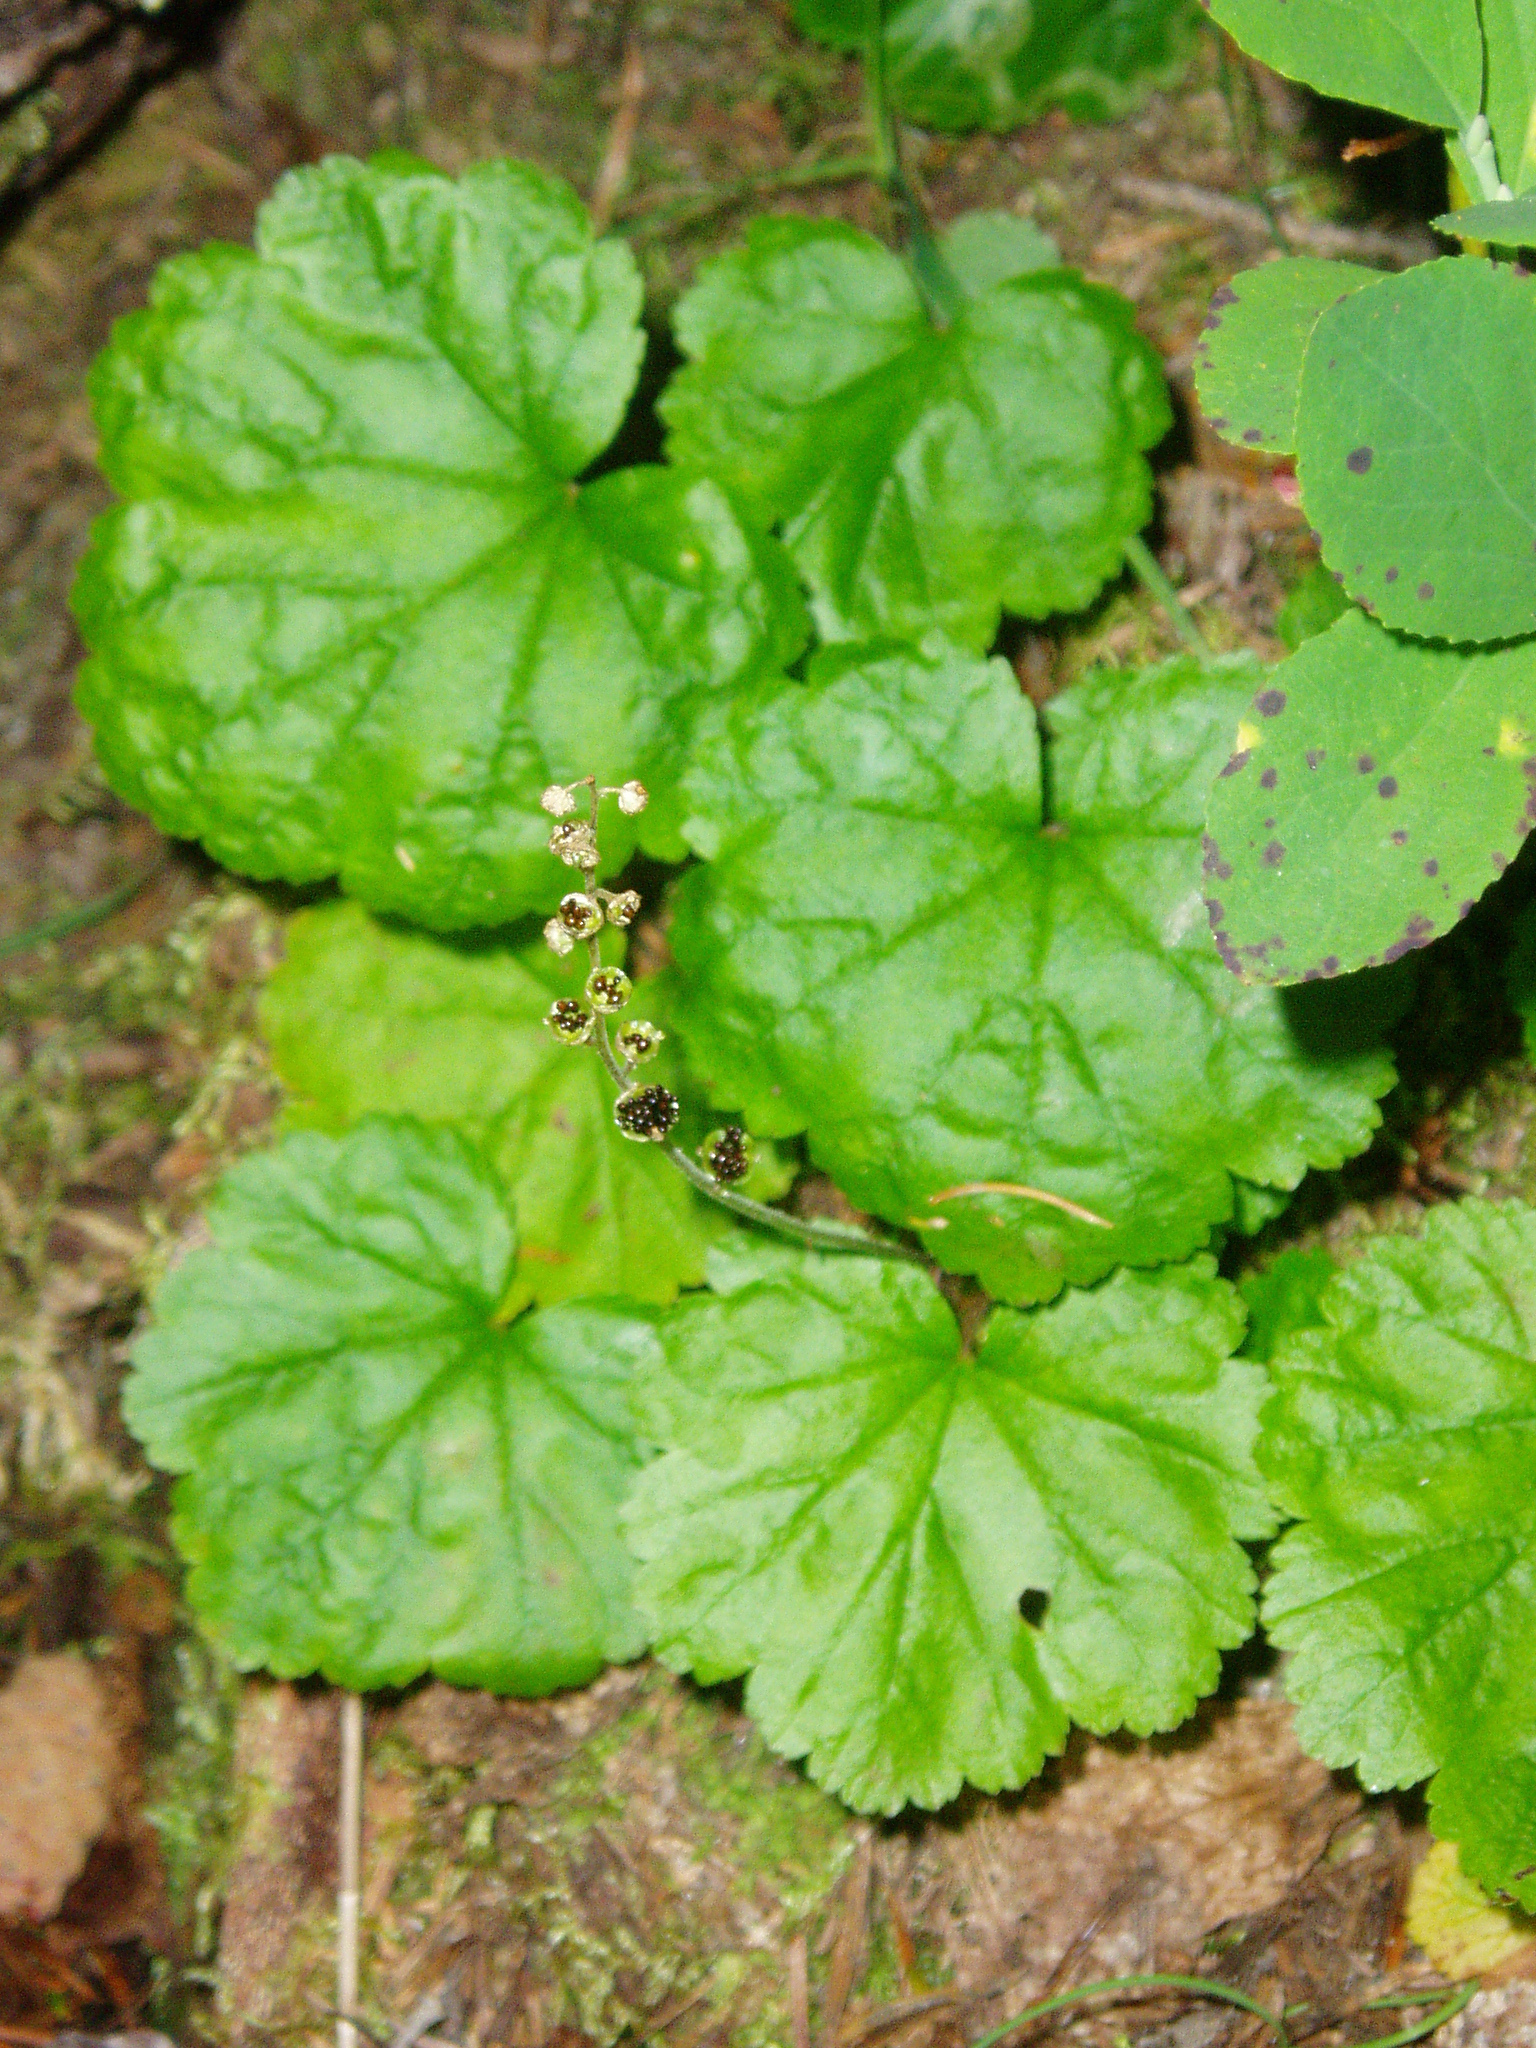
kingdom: Plantae
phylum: Tracheophyta
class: Magnoliopsida
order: Saxifragales
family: Saxifragaceae
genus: Brewerimitella
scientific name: Brewerimitella breweri
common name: Brewer's bishop's-cap
